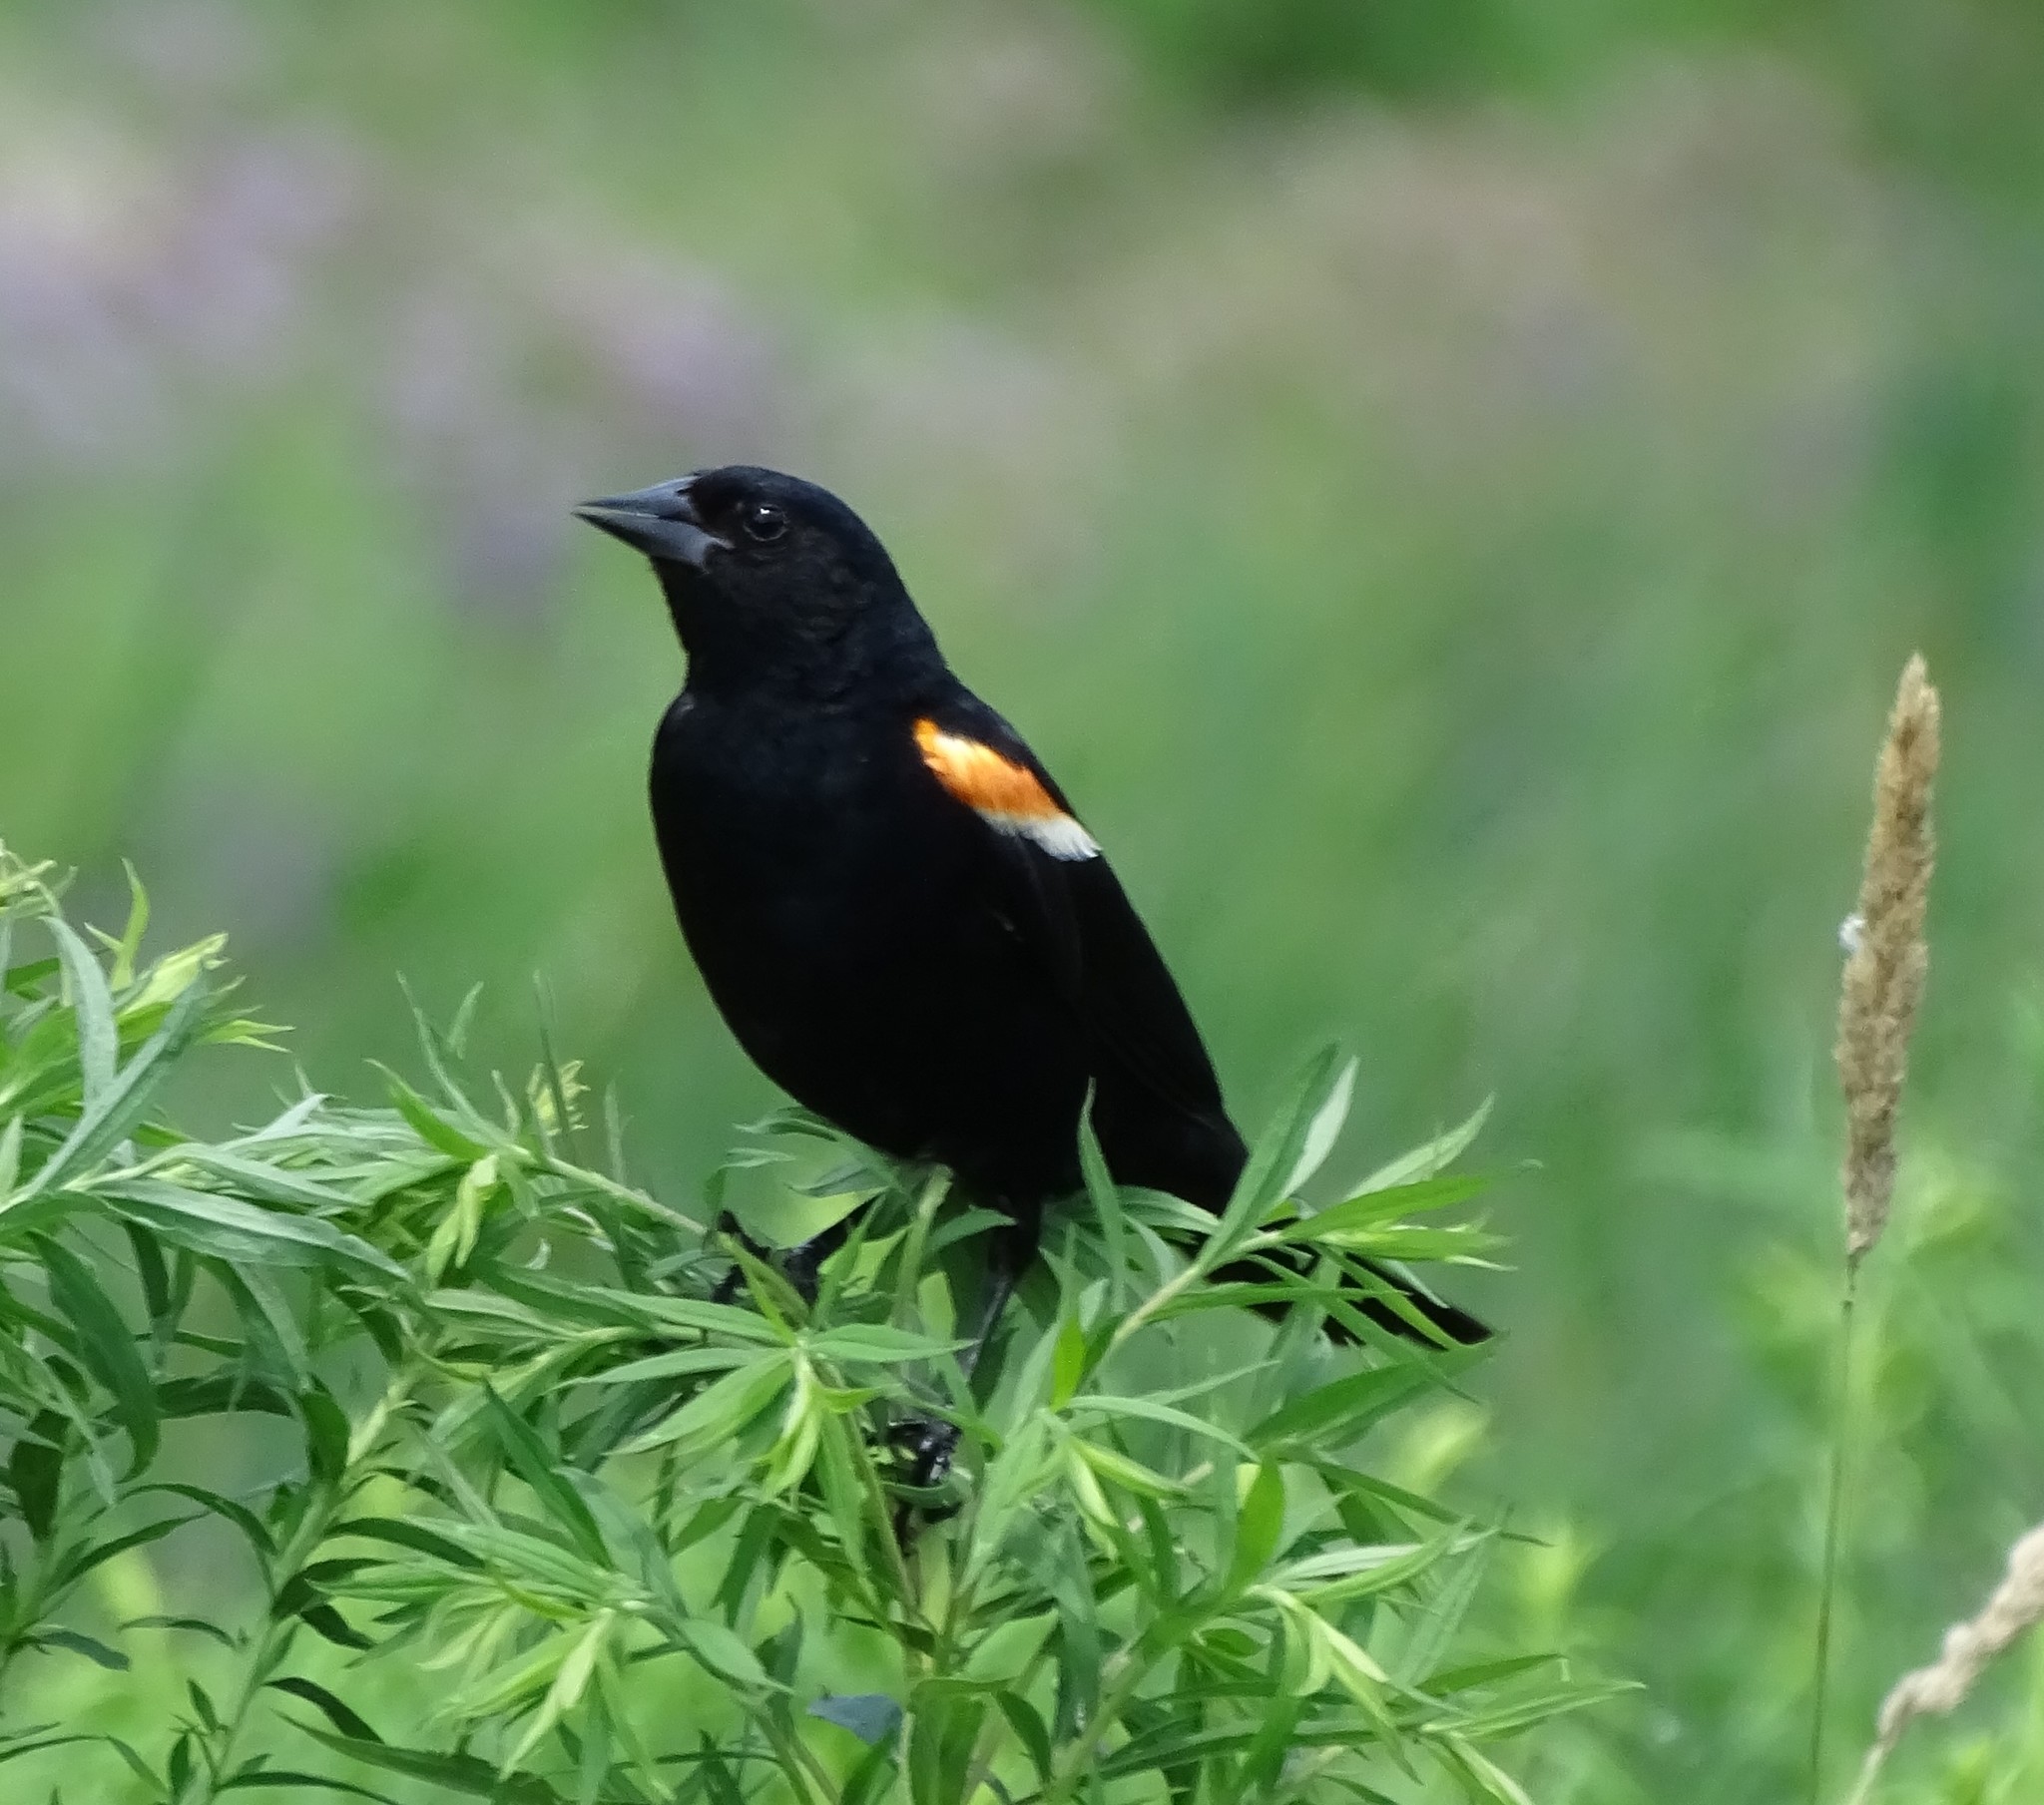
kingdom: Animalia
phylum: Chordata
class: Aves
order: Passeriformes
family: Icteridae
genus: Agelaius
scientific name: Agelaius phoeniceus
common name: Red-winged blackbird
